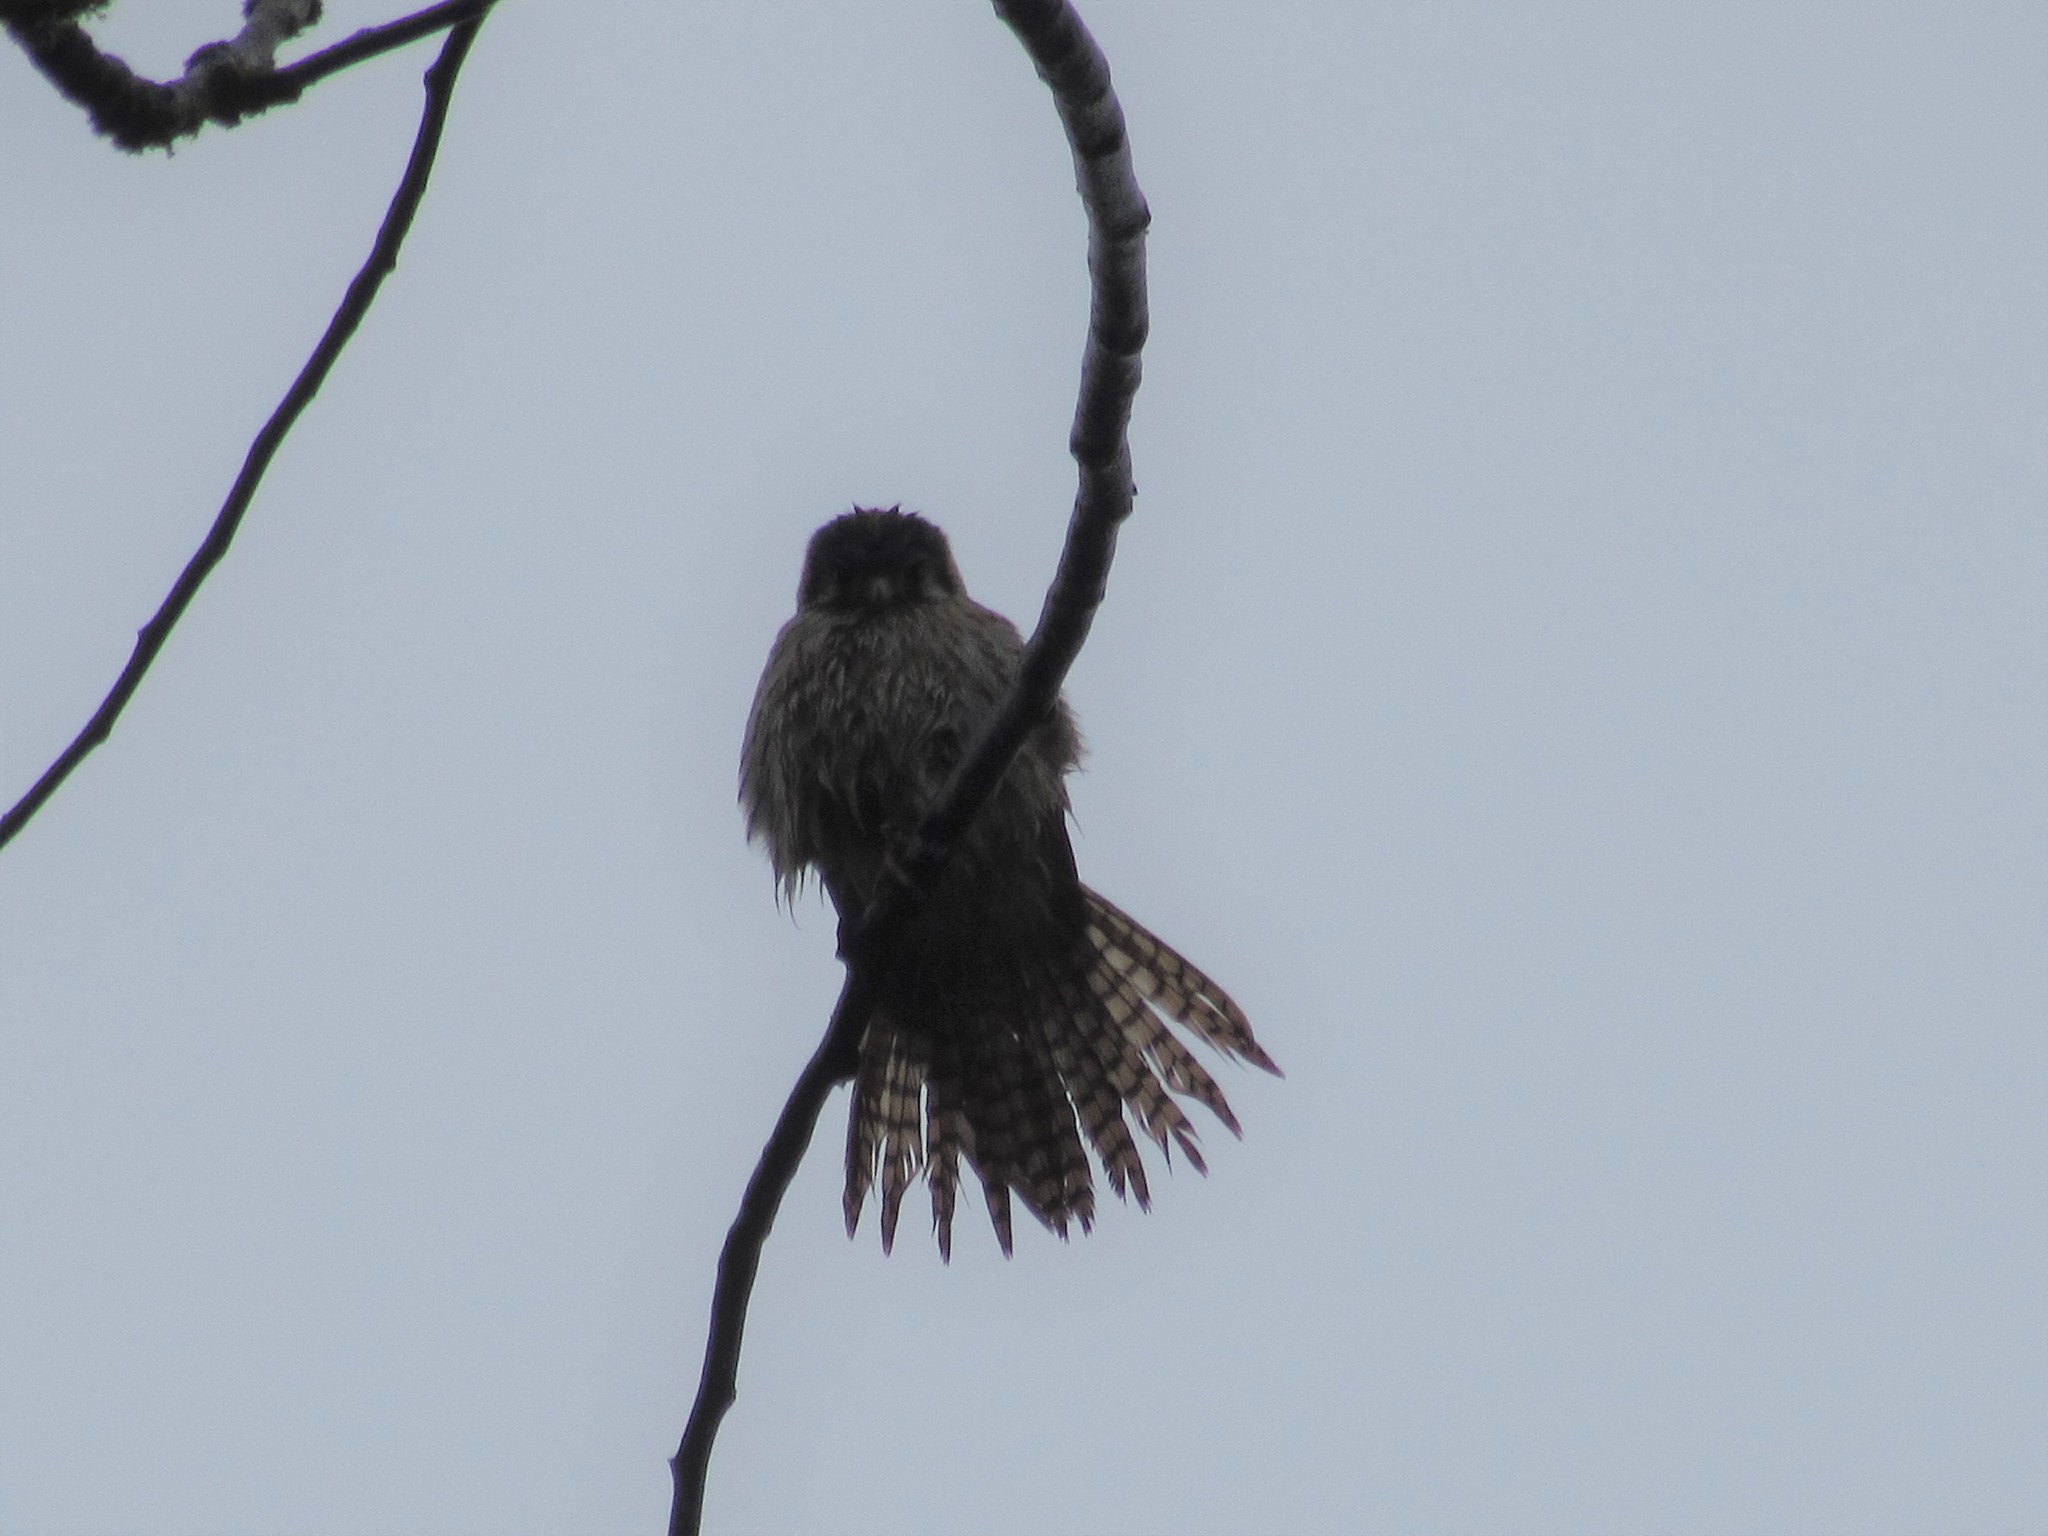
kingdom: Animalia
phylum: Chordata
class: Aves
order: Falconiformes
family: Falconidae
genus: Falco
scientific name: Falco sparverius
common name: American kestrel
